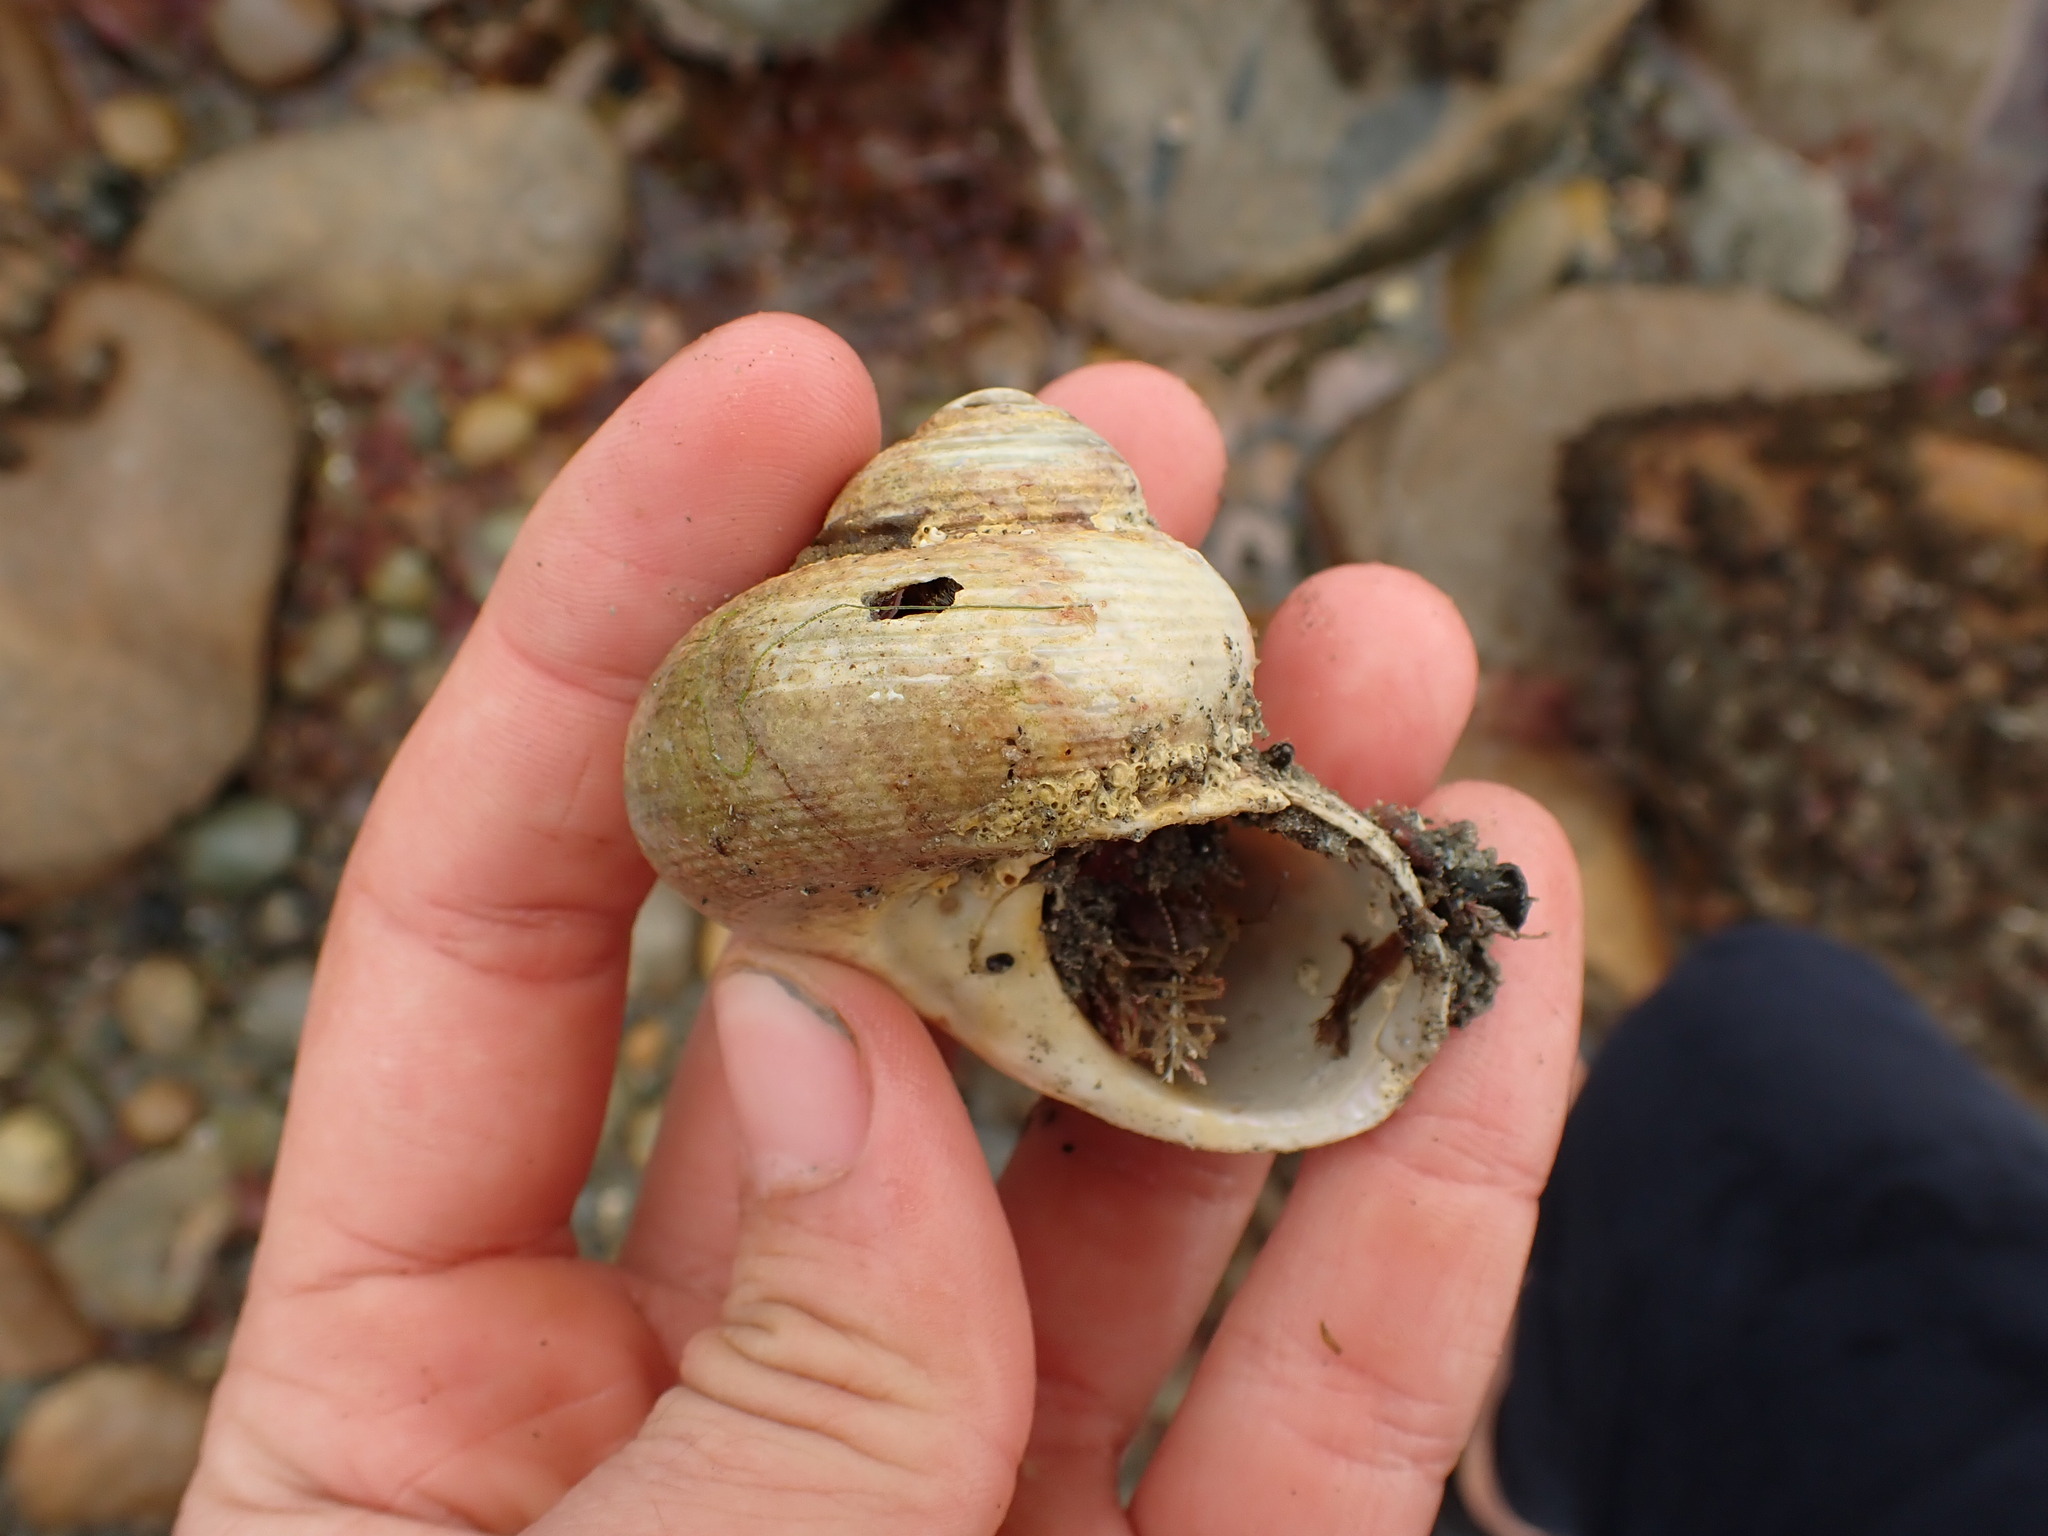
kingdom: Animalia
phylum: Mollusca
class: Gastropoda
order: Trochida
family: Turbinidae
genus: Modelia
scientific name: Modelia granosa
